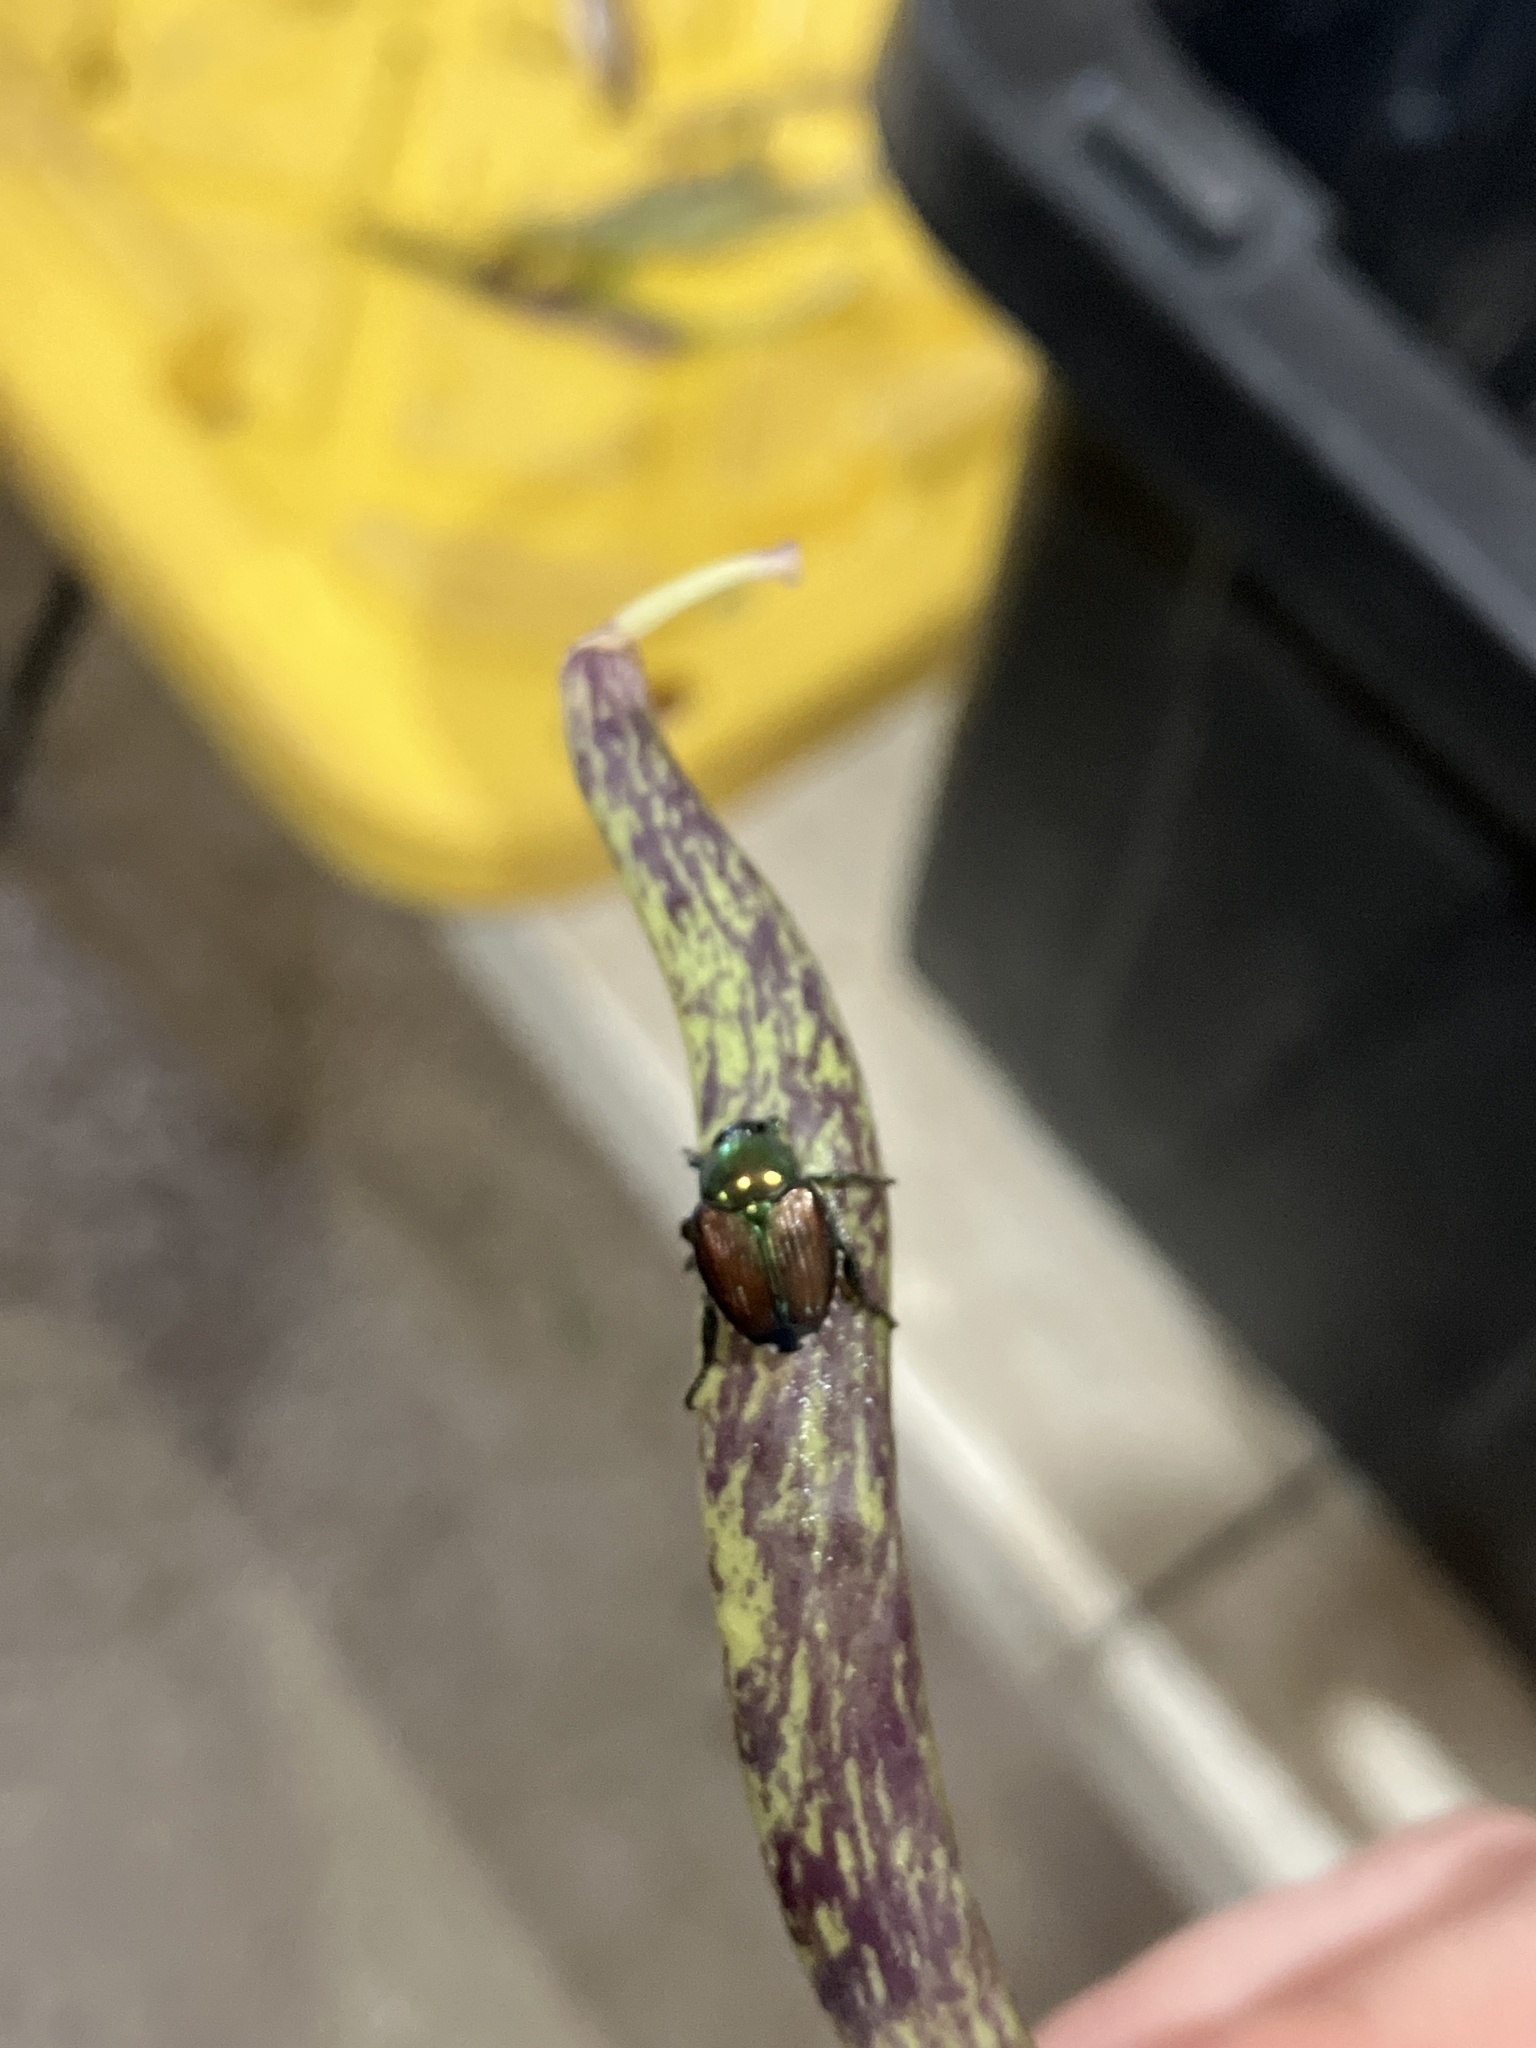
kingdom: Animalia
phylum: Arthropoda
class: Insecta
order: Coleoptera
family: Scarabaeidae
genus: Popillia
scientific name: Popillia japonica
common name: Japanese beetle
